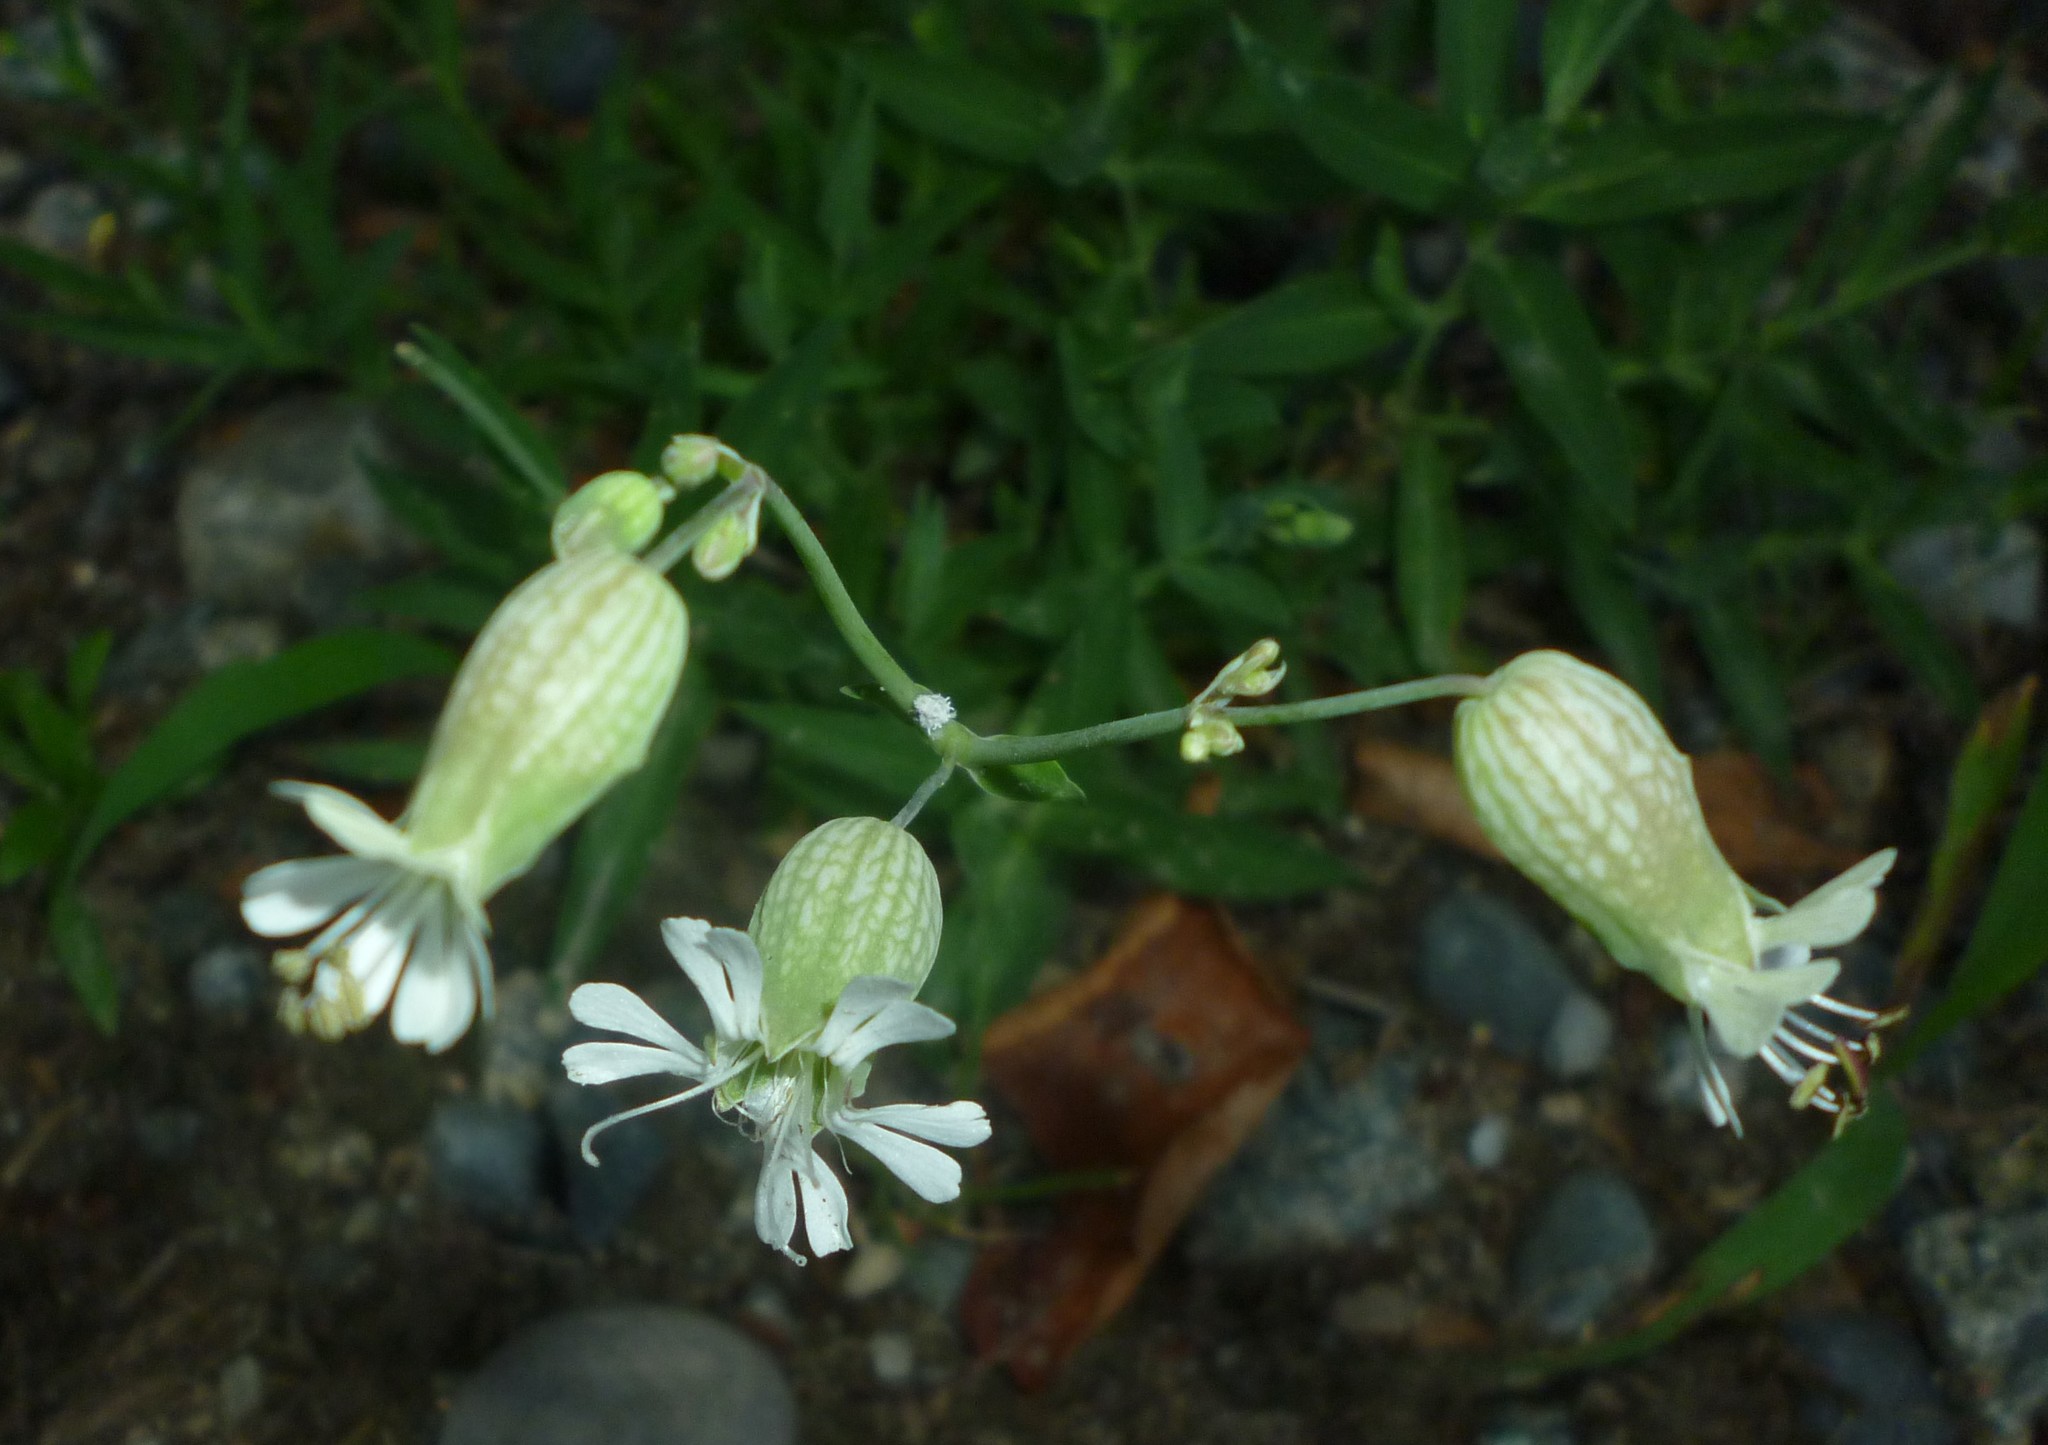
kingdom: Plantae
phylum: Tracheophyta
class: Magnoliopsida
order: Caryophyllales
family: Caryophyllaceae
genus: Silene
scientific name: Silene vulgaris
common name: Bladder campion
